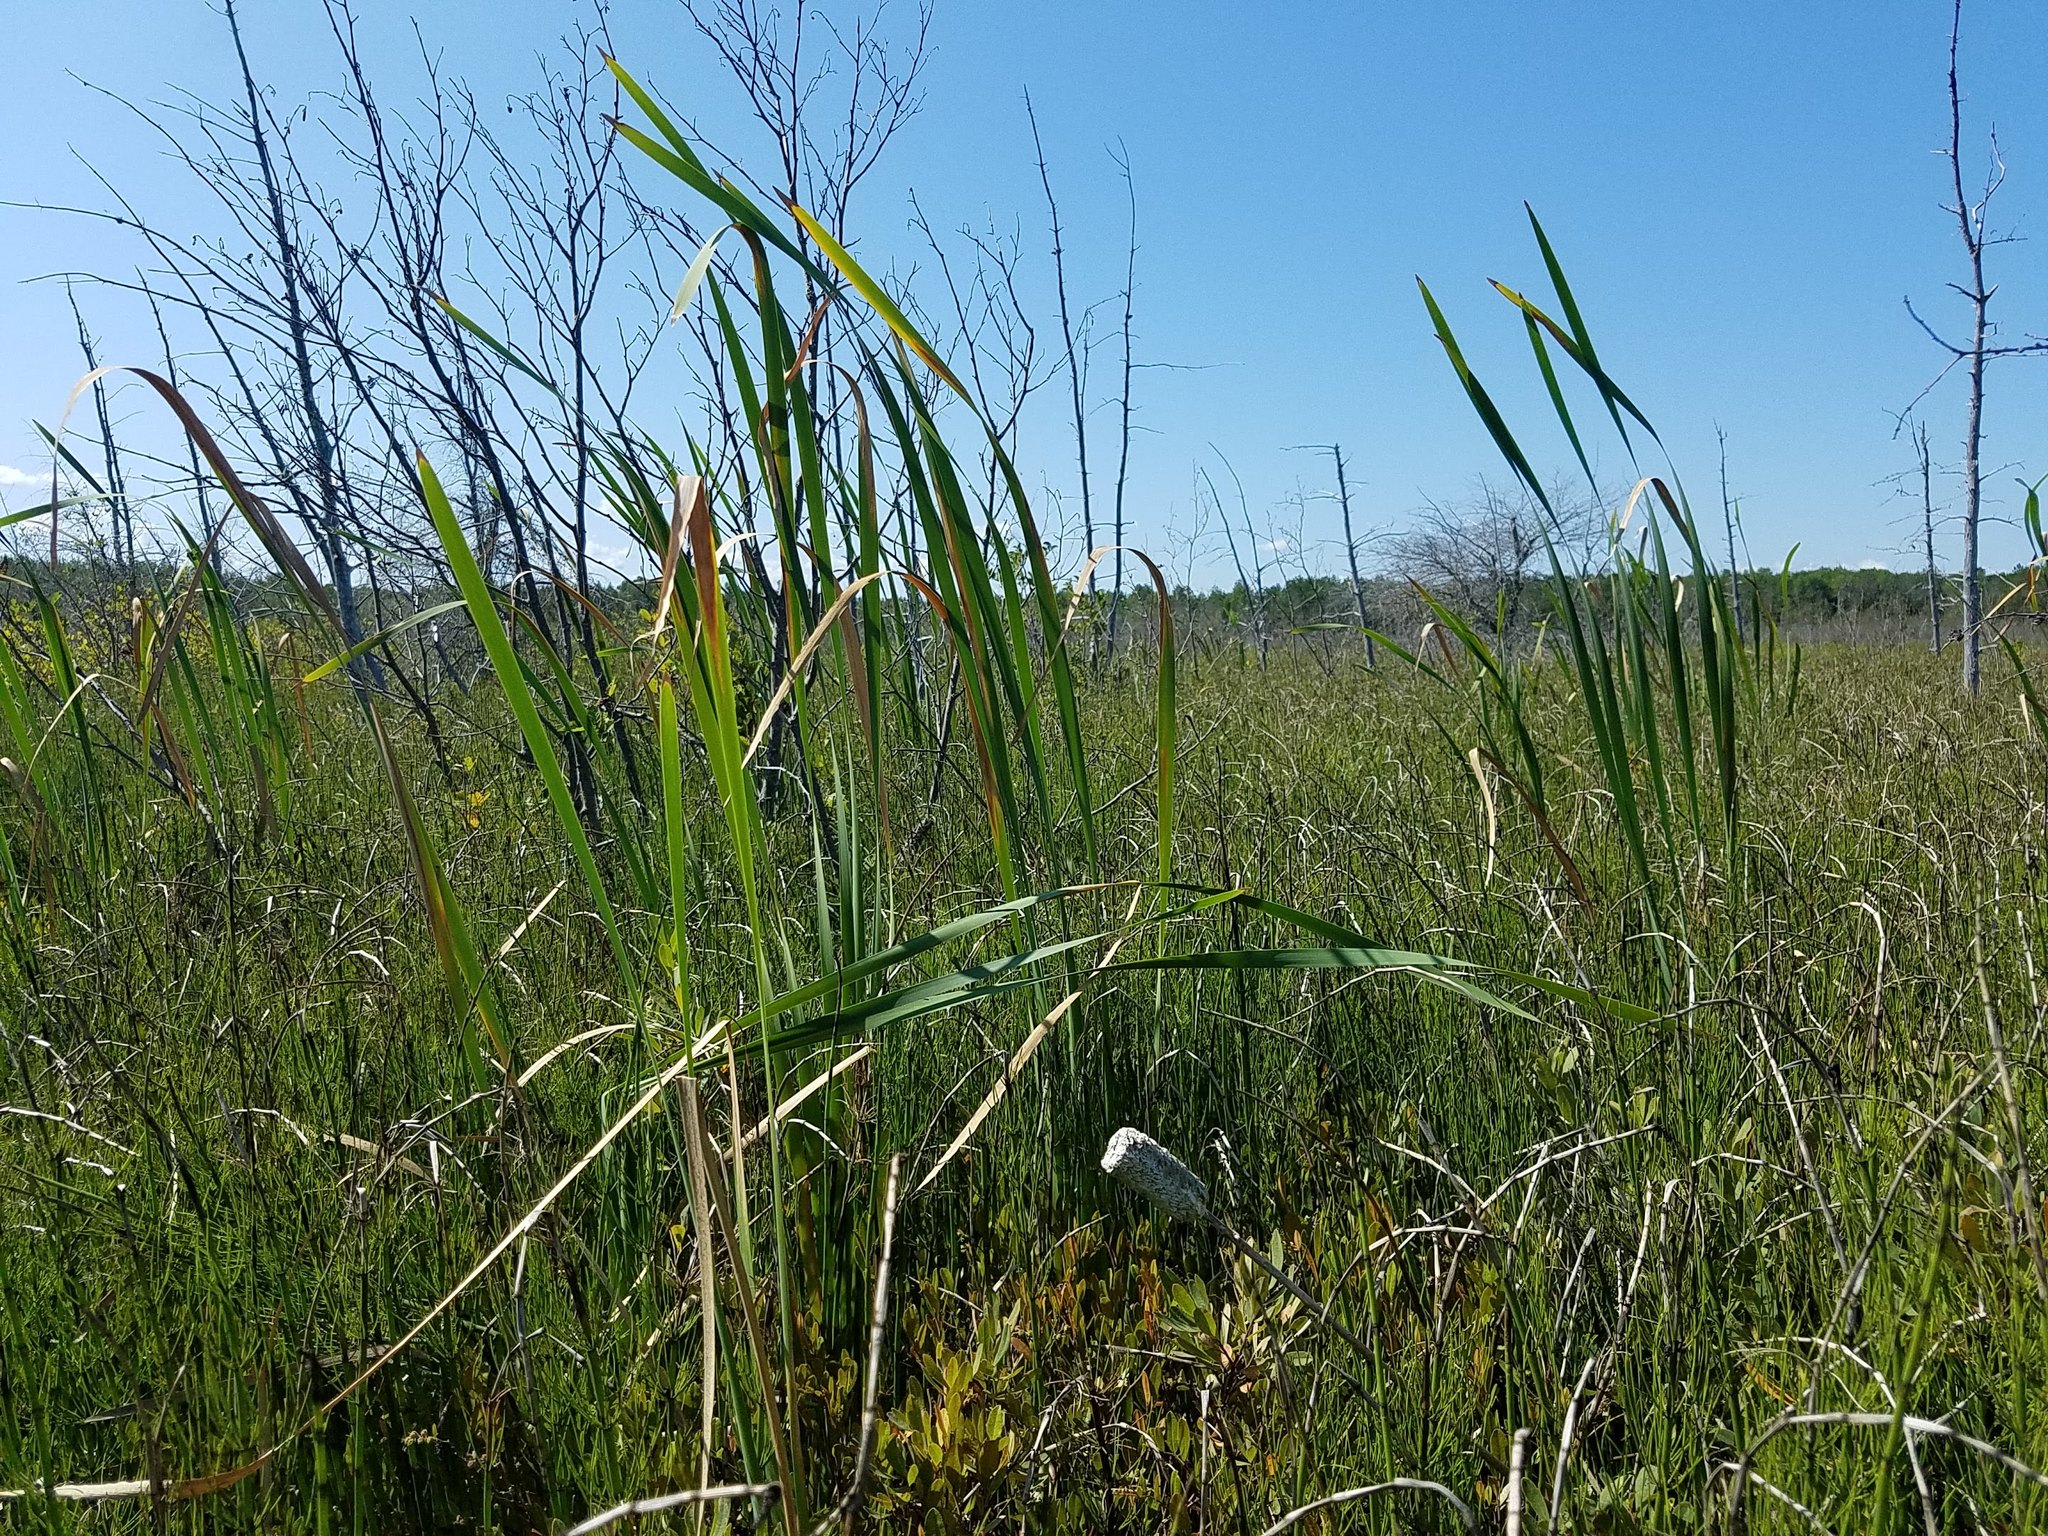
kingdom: Plantae
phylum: Tracheophyta
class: Liliopsida
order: Poales
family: Typhaceae
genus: Typha
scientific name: Typha latifolia
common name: Broadleaf cattail
